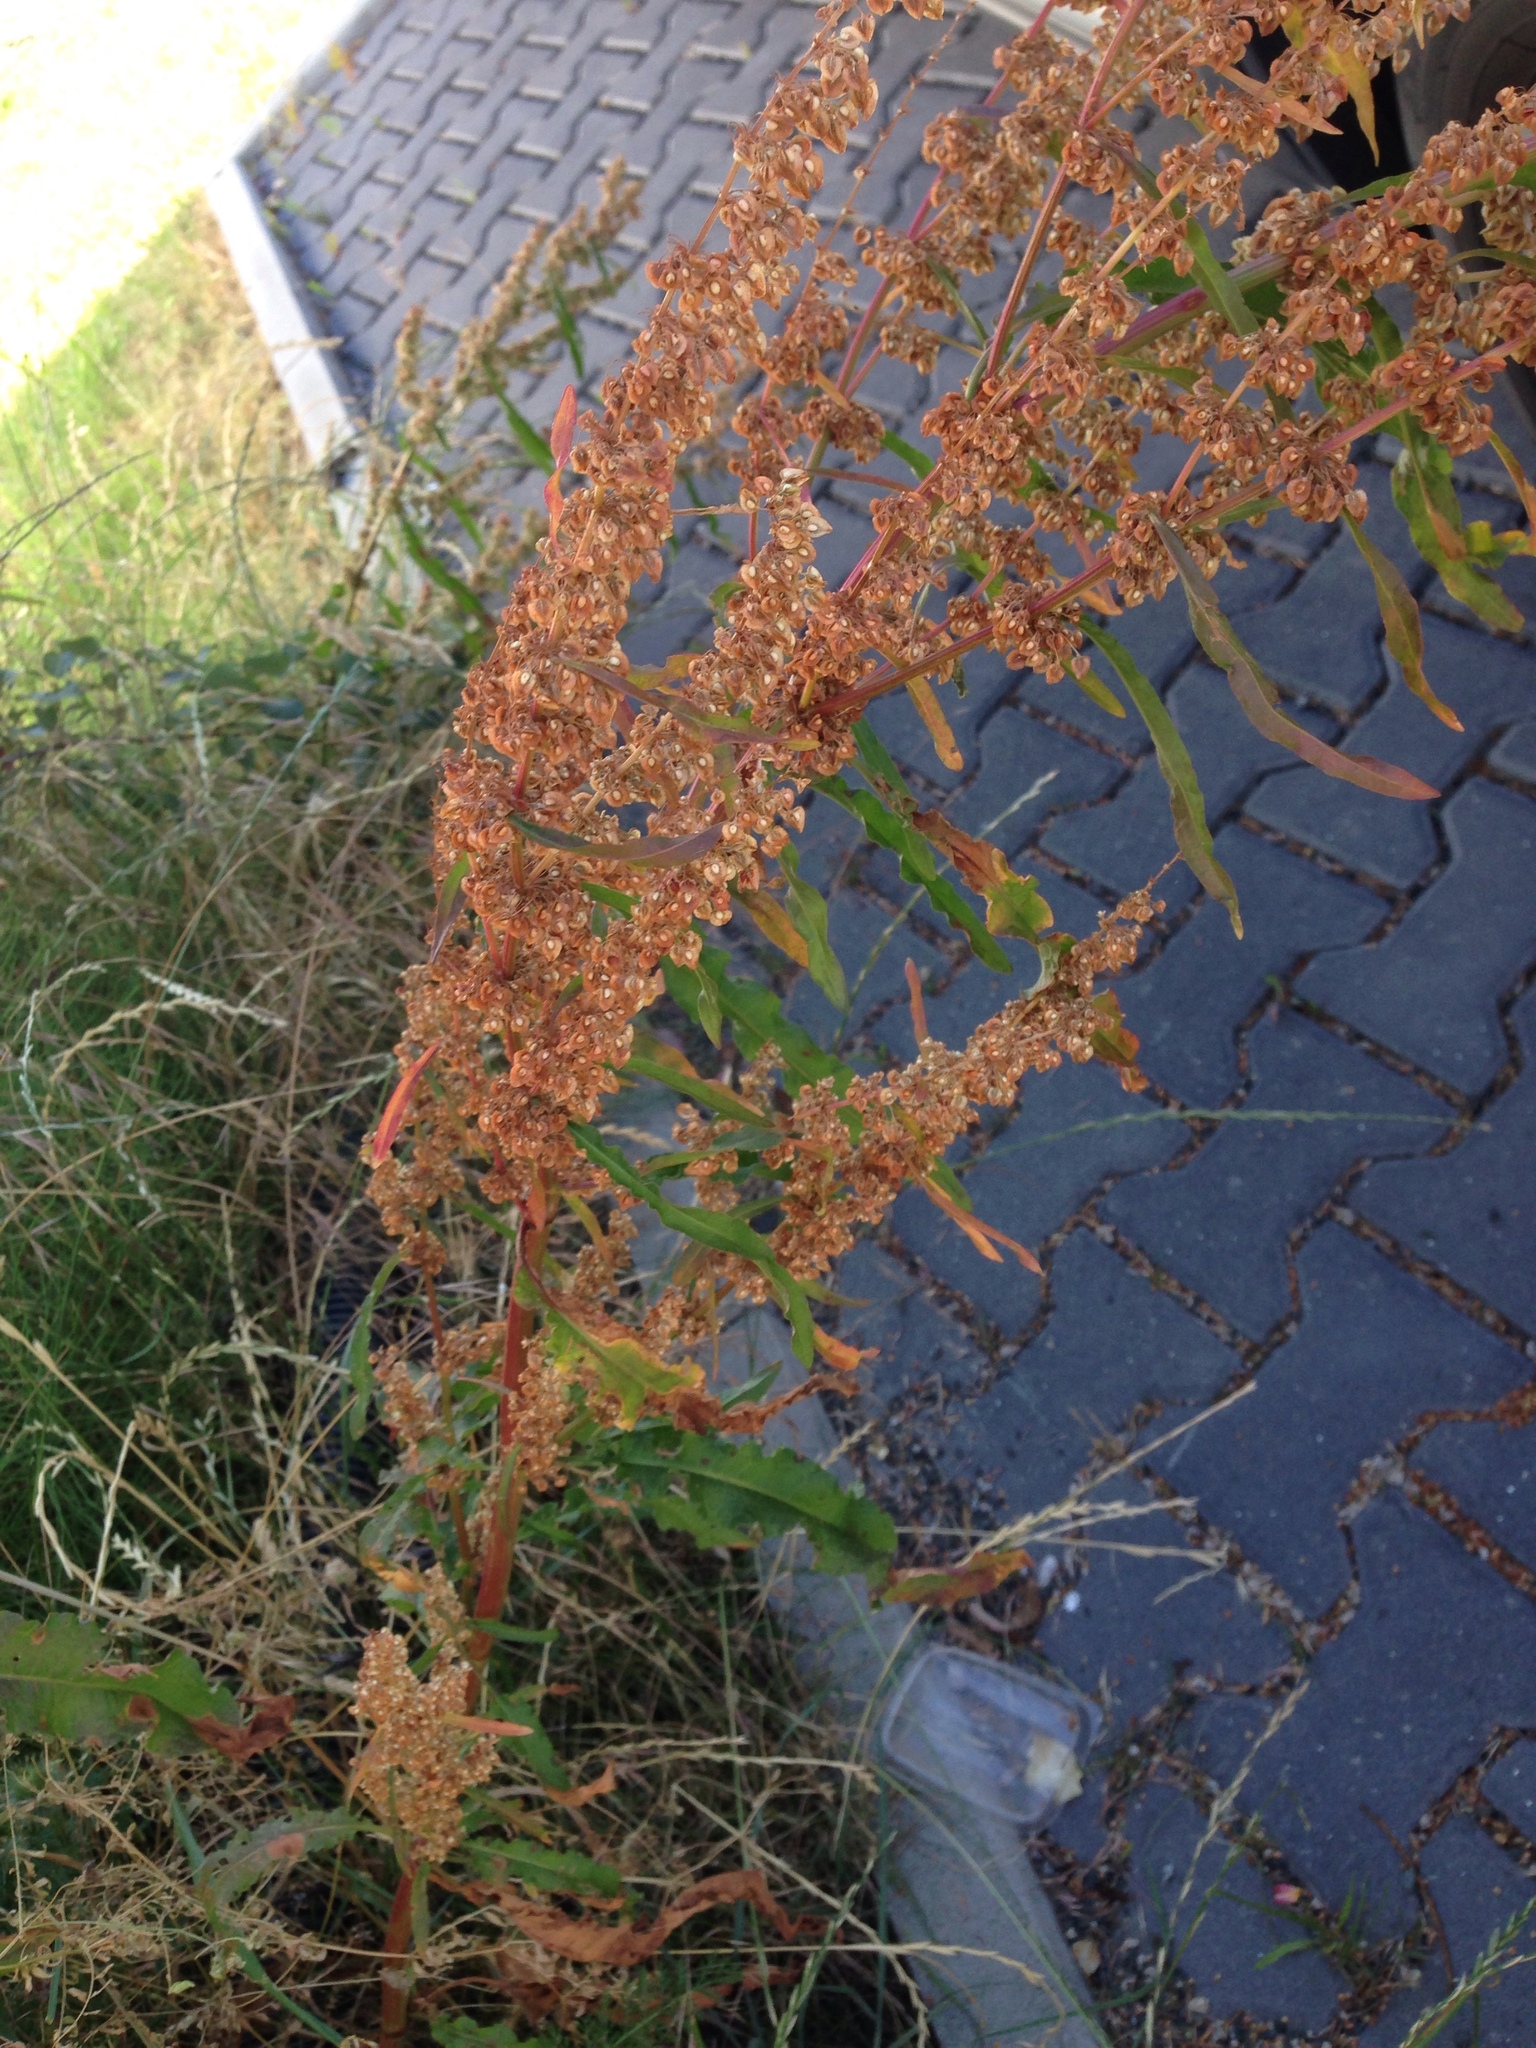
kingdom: Plantae
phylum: Tracheophyta
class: Magnoliopsida
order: Caryophyllales
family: Polygonaceae
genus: Rumex
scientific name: Rumex crispus
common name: Curled dock
